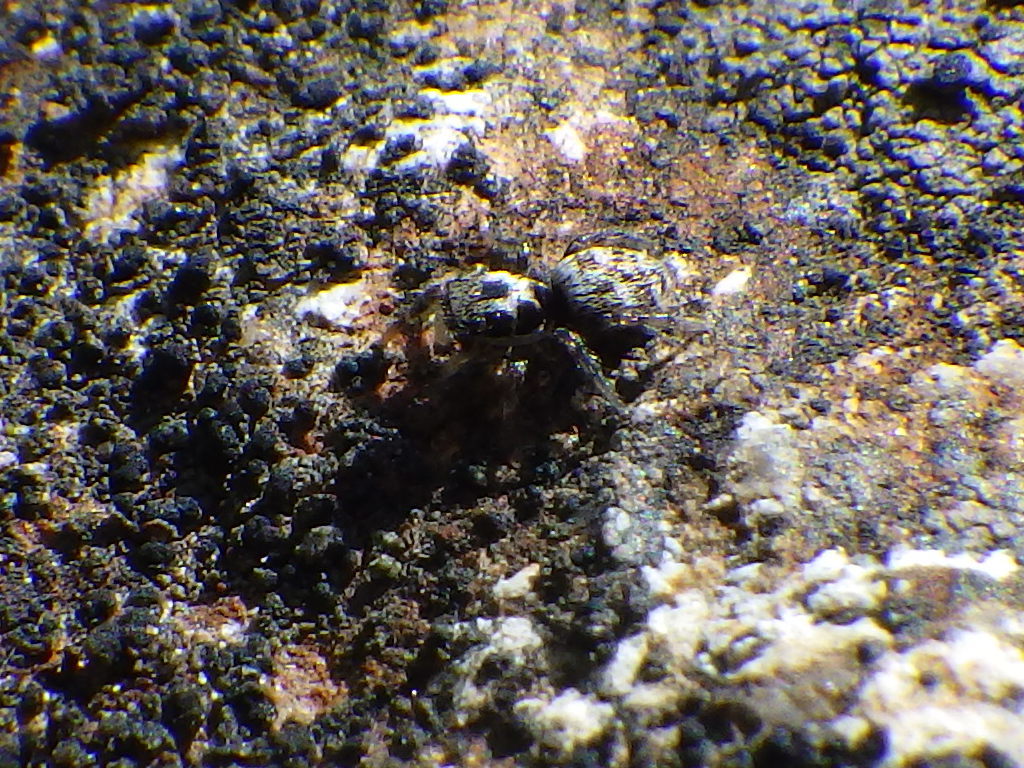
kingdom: Animalia
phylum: Arthropoda
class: Arachnida
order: Araneae
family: Salticidae
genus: Salticus
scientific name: Salticus scenicus
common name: Zebra jumper
